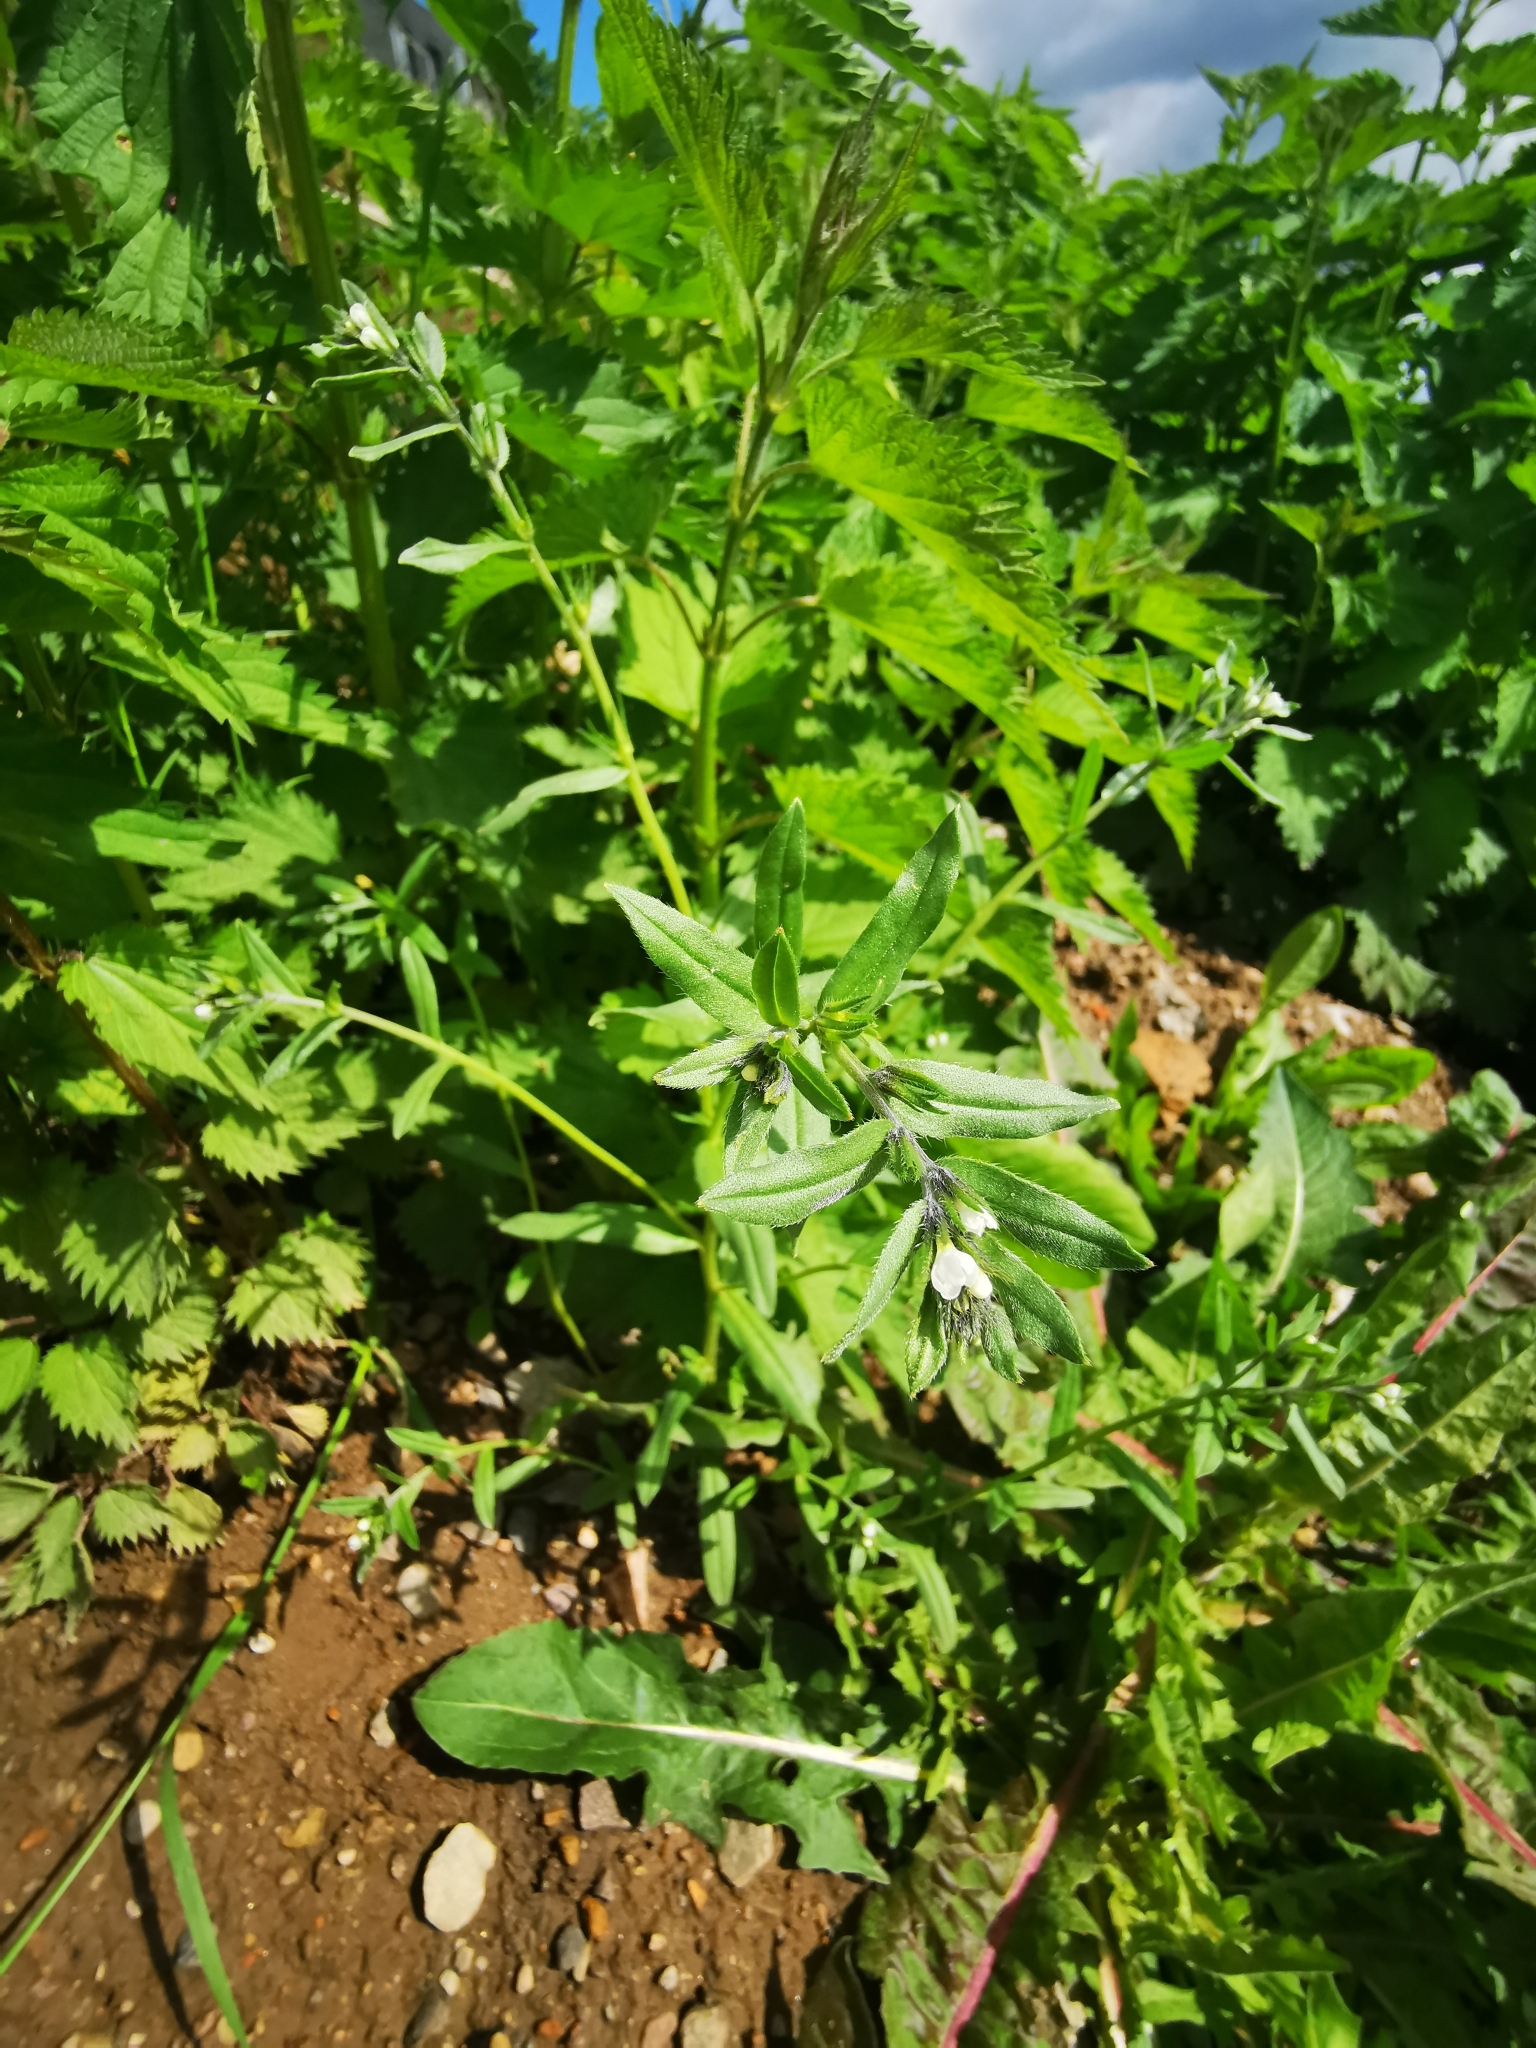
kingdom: Plantae
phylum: Tracheophyta
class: Magnoliopsida
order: Boraginales
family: Boraginaceae
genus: Buglossoides
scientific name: Buglossoides arvensis
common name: Corn gromwell
